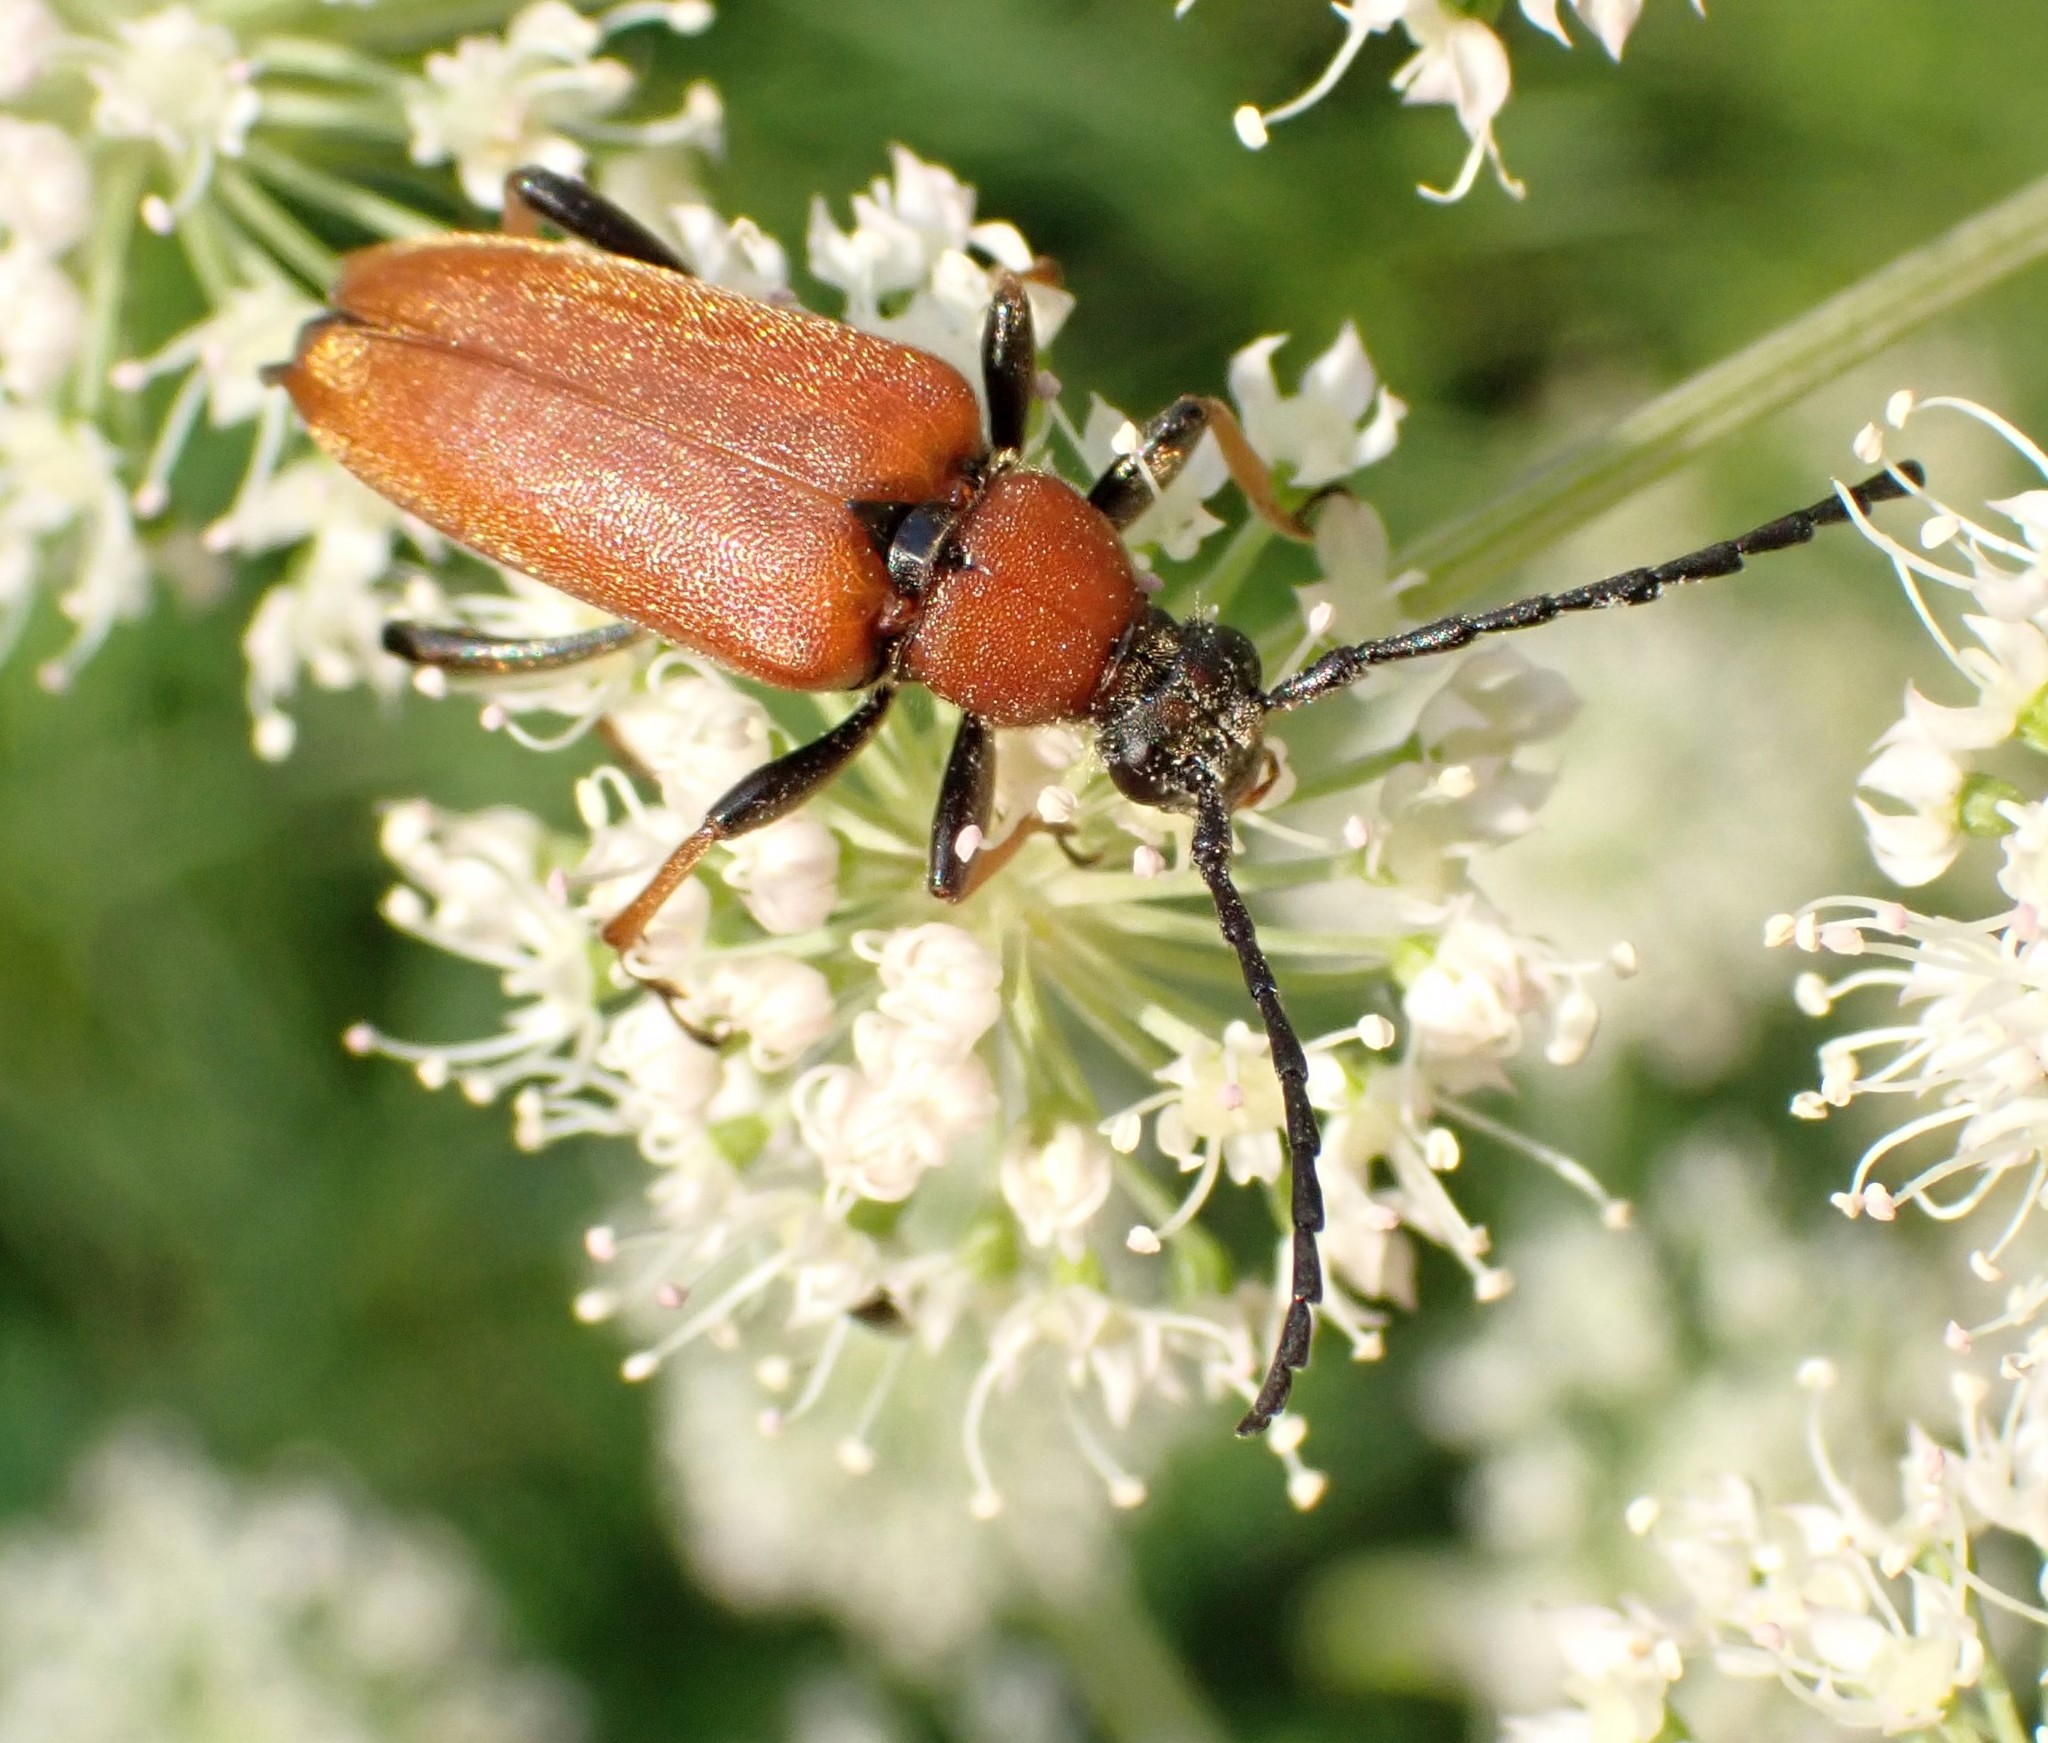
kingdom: Animalia
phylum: Arthropoda
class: Insecta
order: Coleoptera
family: Cerambycidae
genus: Stictoleptura
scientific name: Stictoleptura rubra
